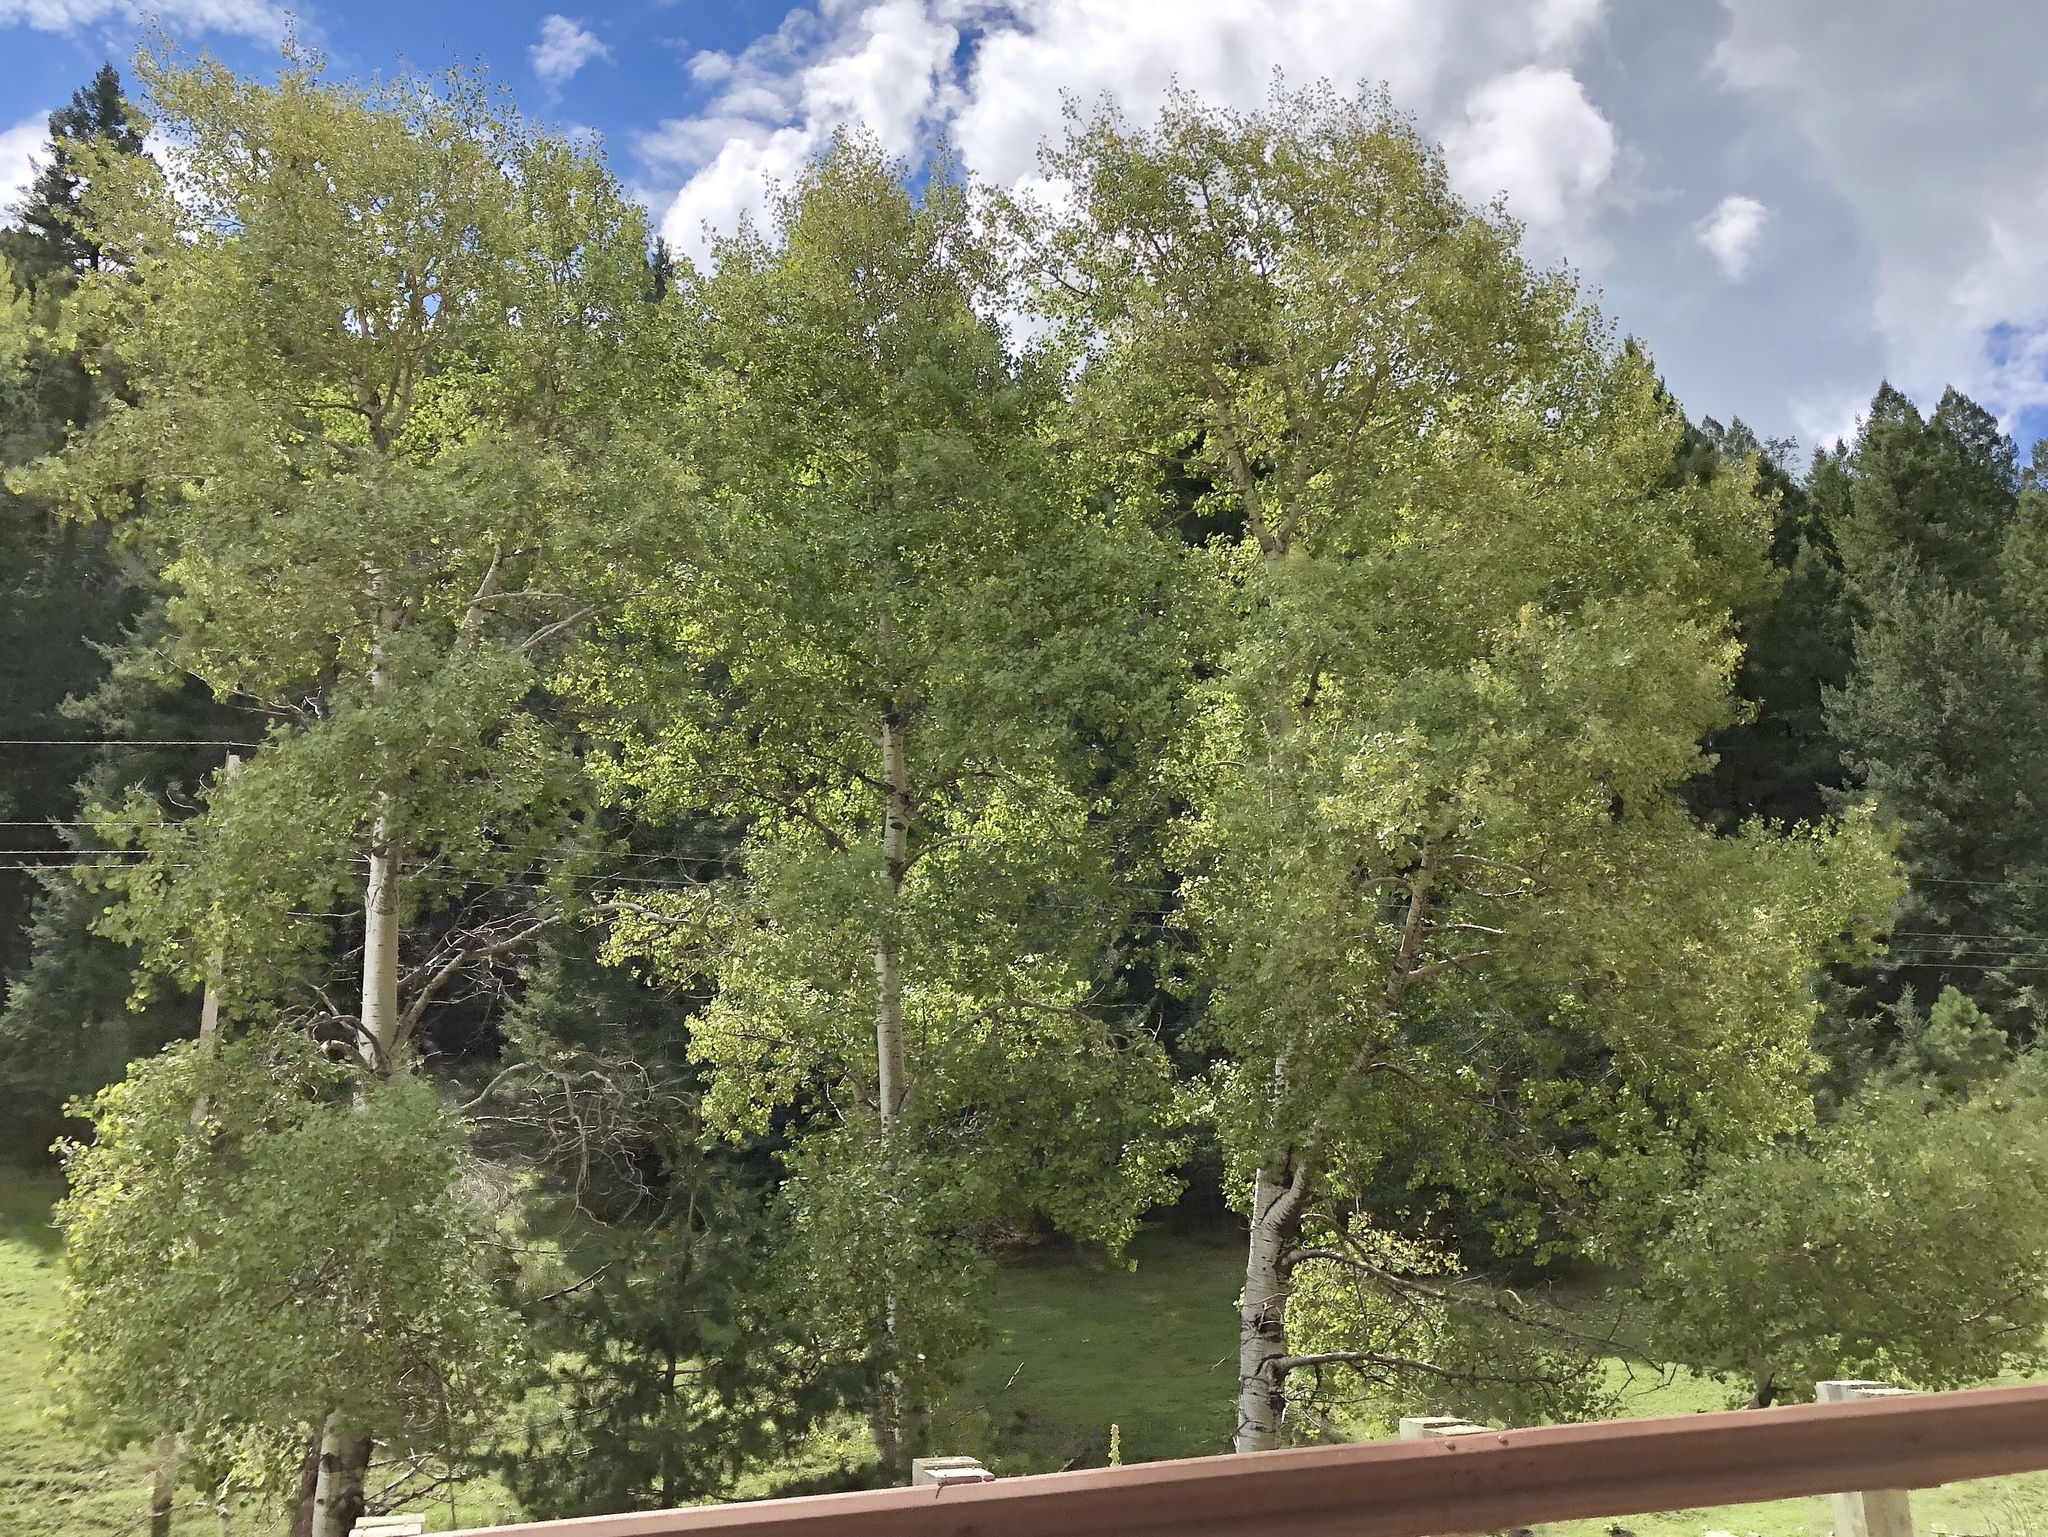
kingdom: Plantae
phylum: Tracheophyta
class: Magnoliopsida
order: Malpighiales
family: Salicaceae
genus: Populus
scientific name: Populus tremuloides
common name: Quaking aspen
